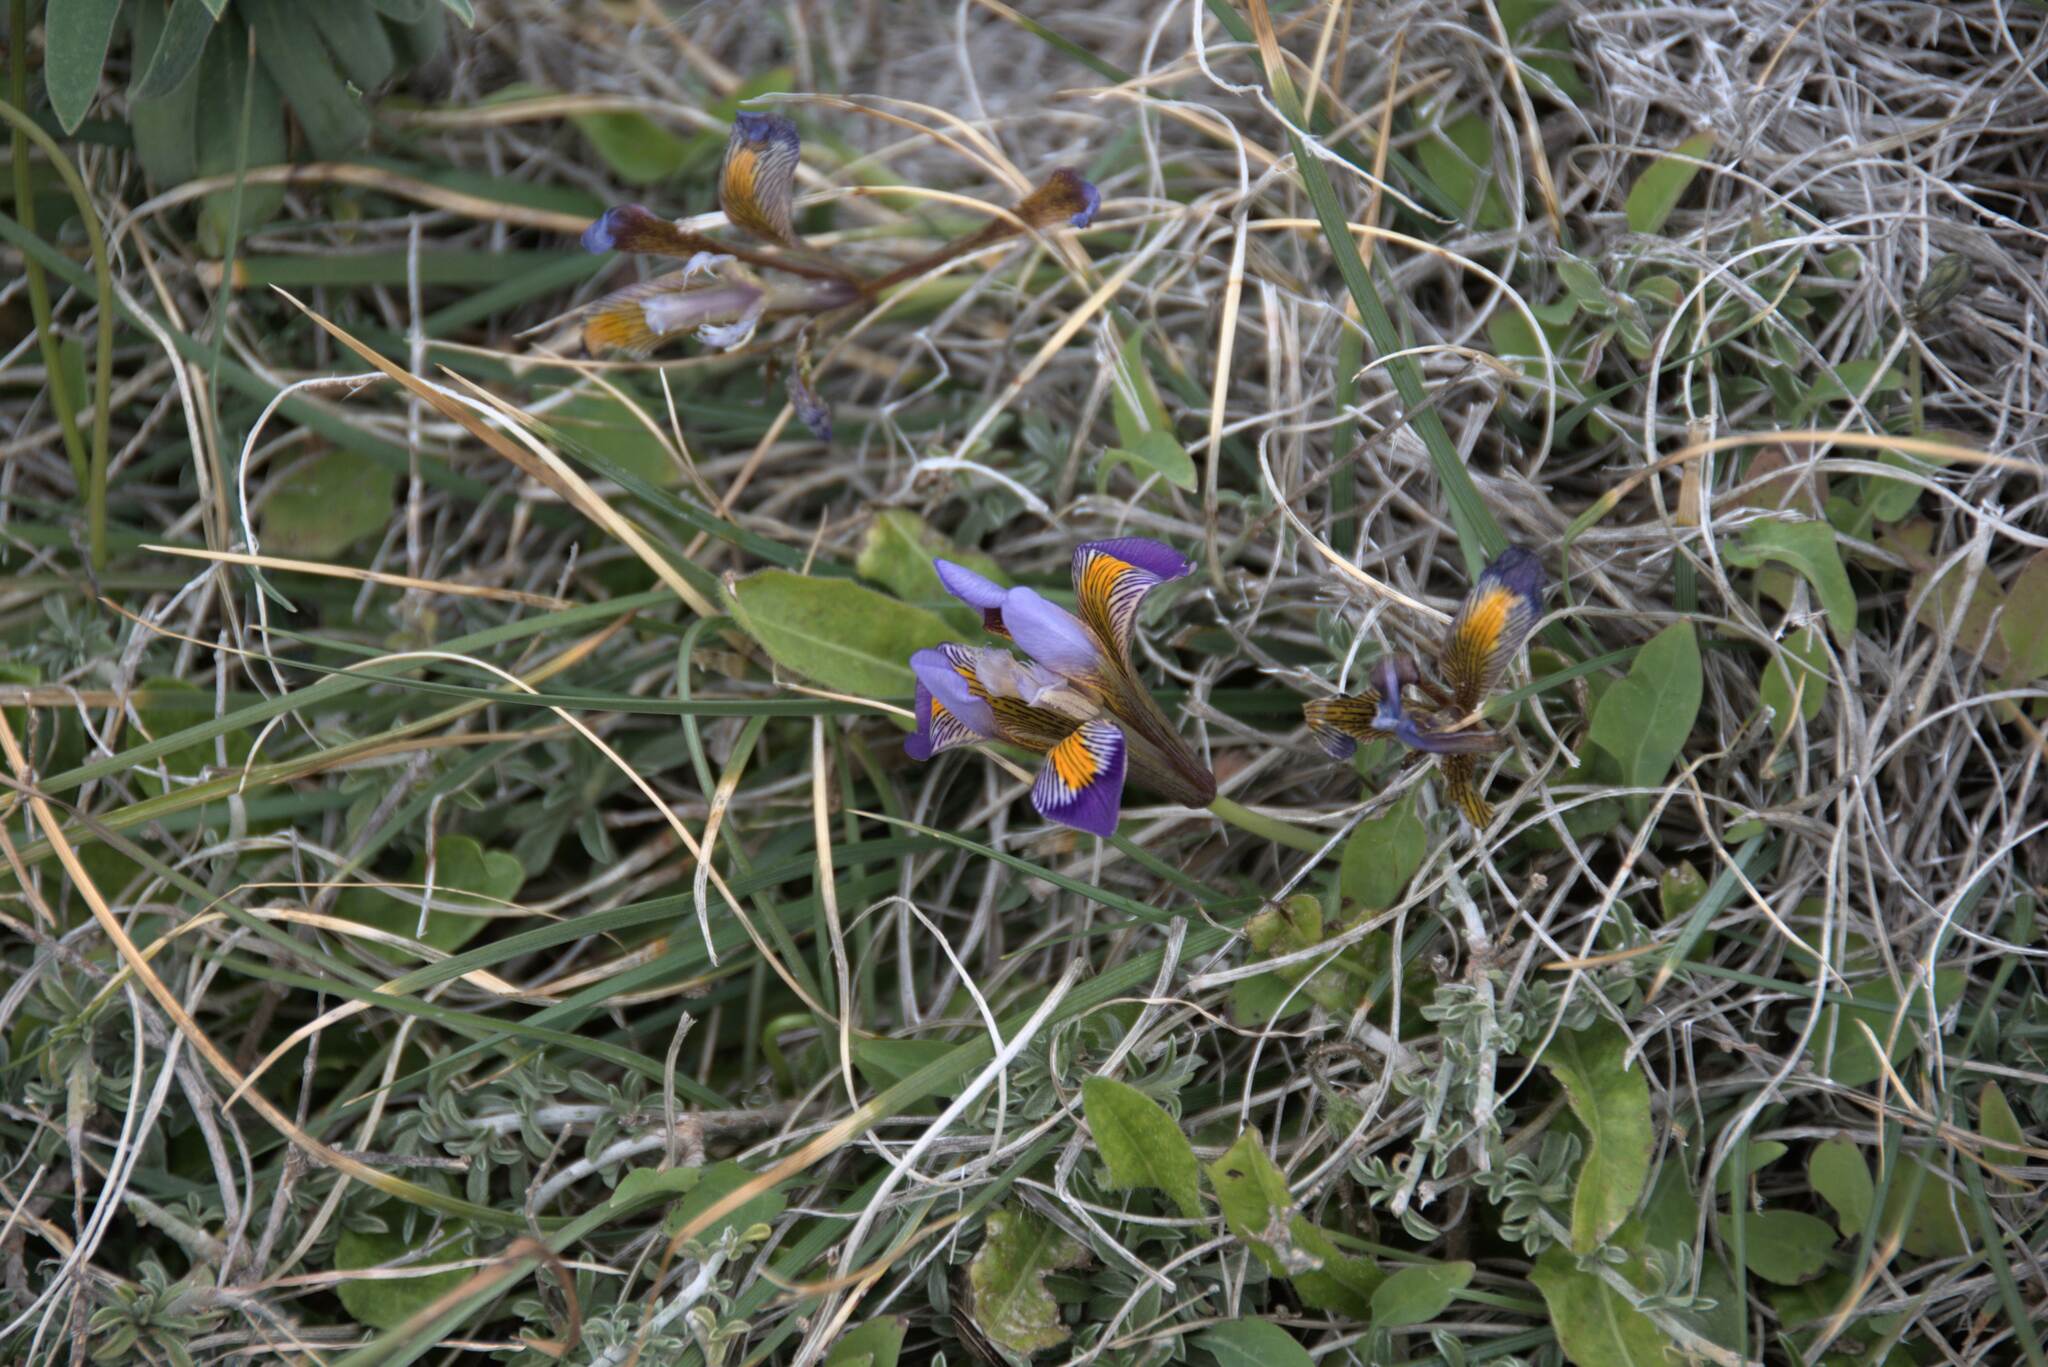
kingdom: Plantae
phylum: Tracheophyta
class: Liliopsida
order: Asparagales
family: Iridaceae
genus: Iris
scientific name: Iris unguicularis
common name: Algerian iris
